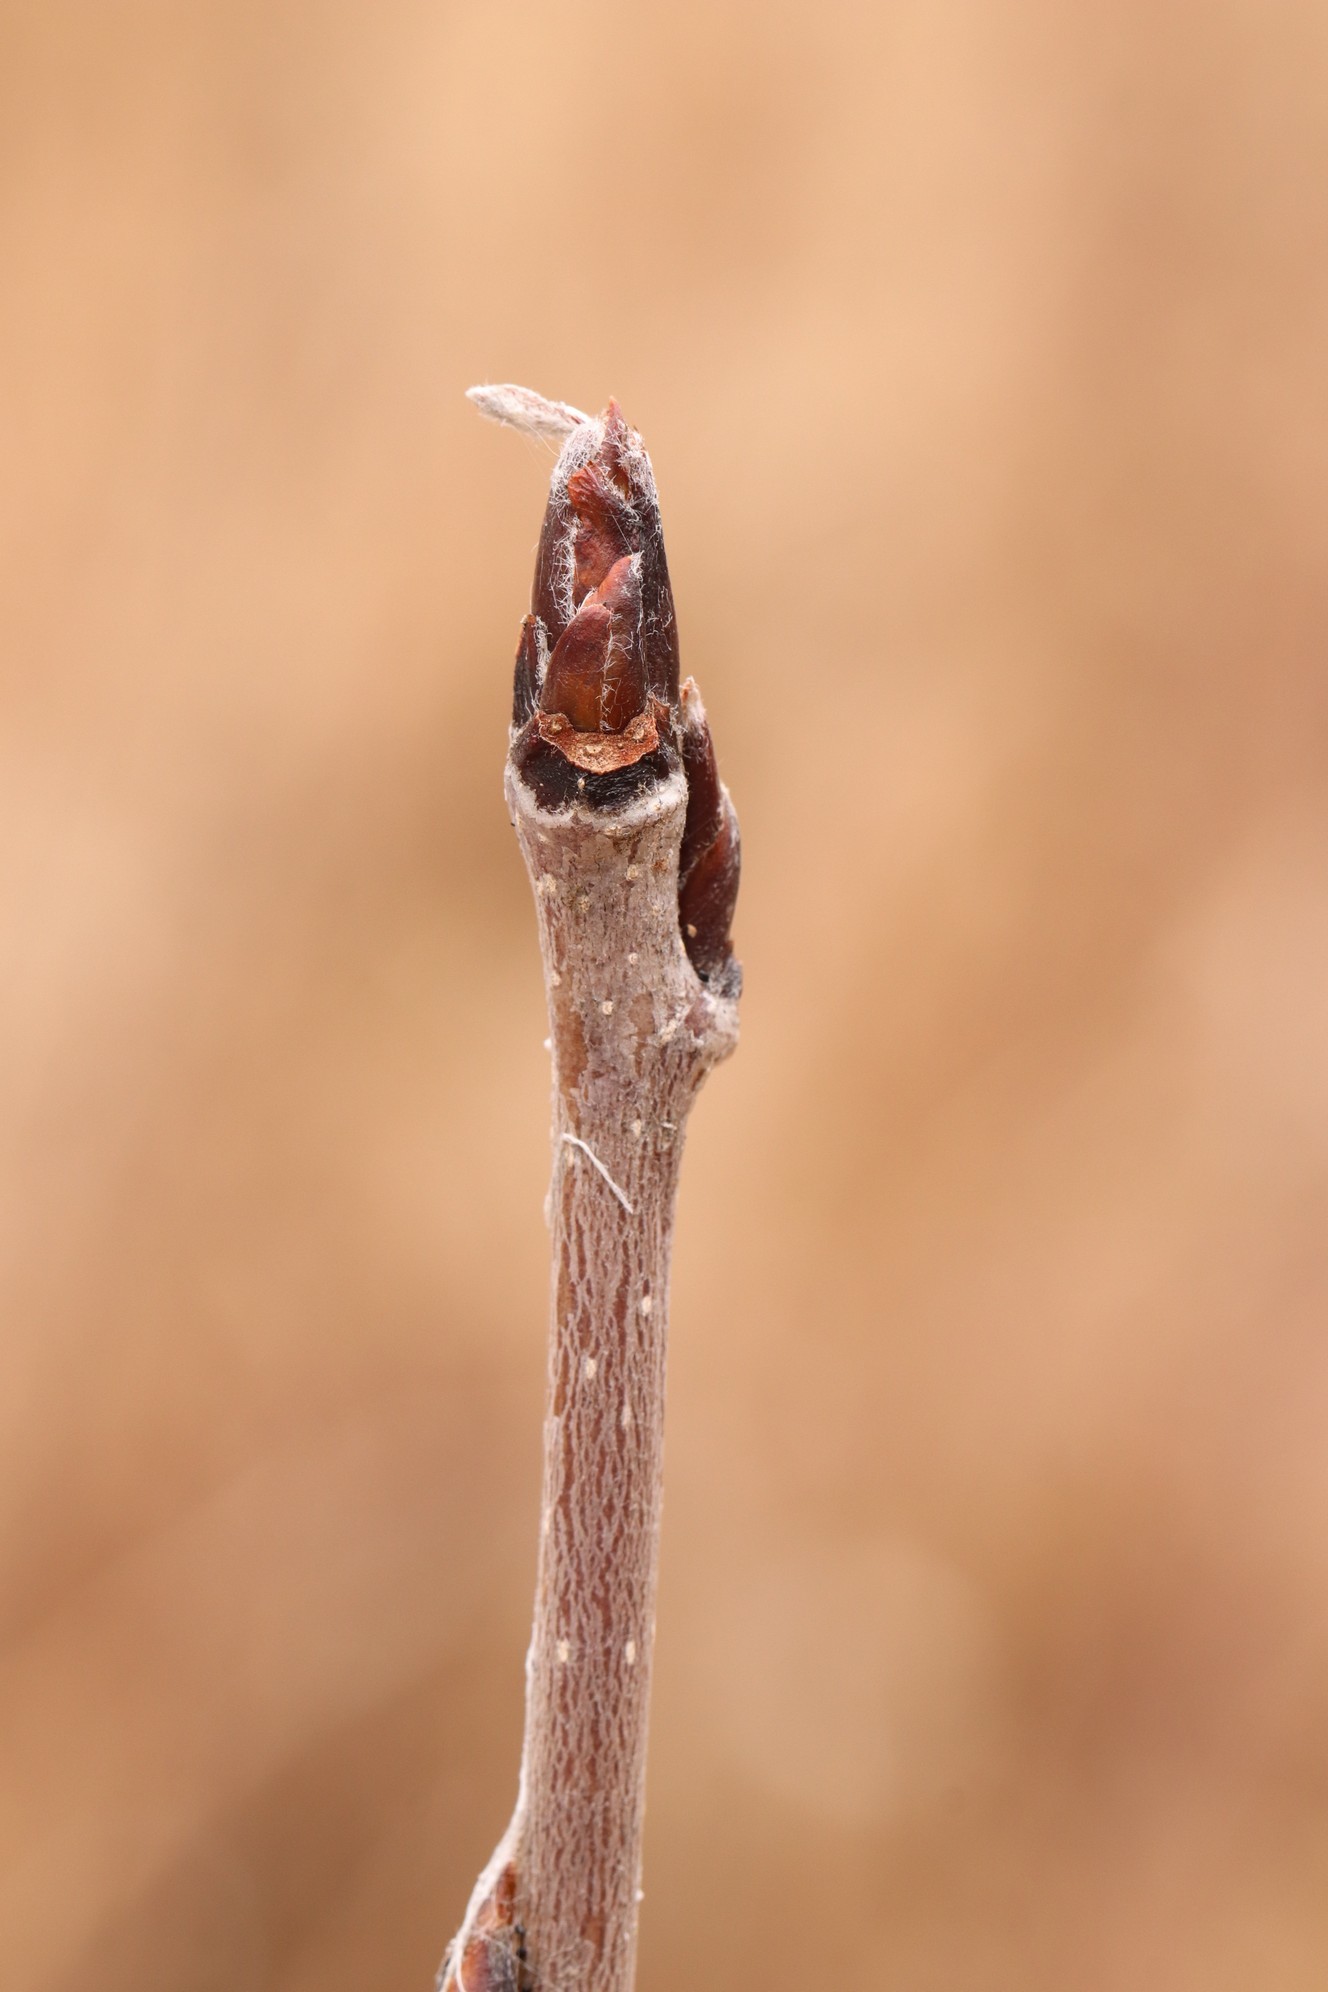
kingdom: Plantae
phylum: Tracheophyta
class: Magnoliopsida
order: Rosales
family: Rosaceae
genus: Sorbus
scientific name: Sorbus aucuparia
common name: Rowan
